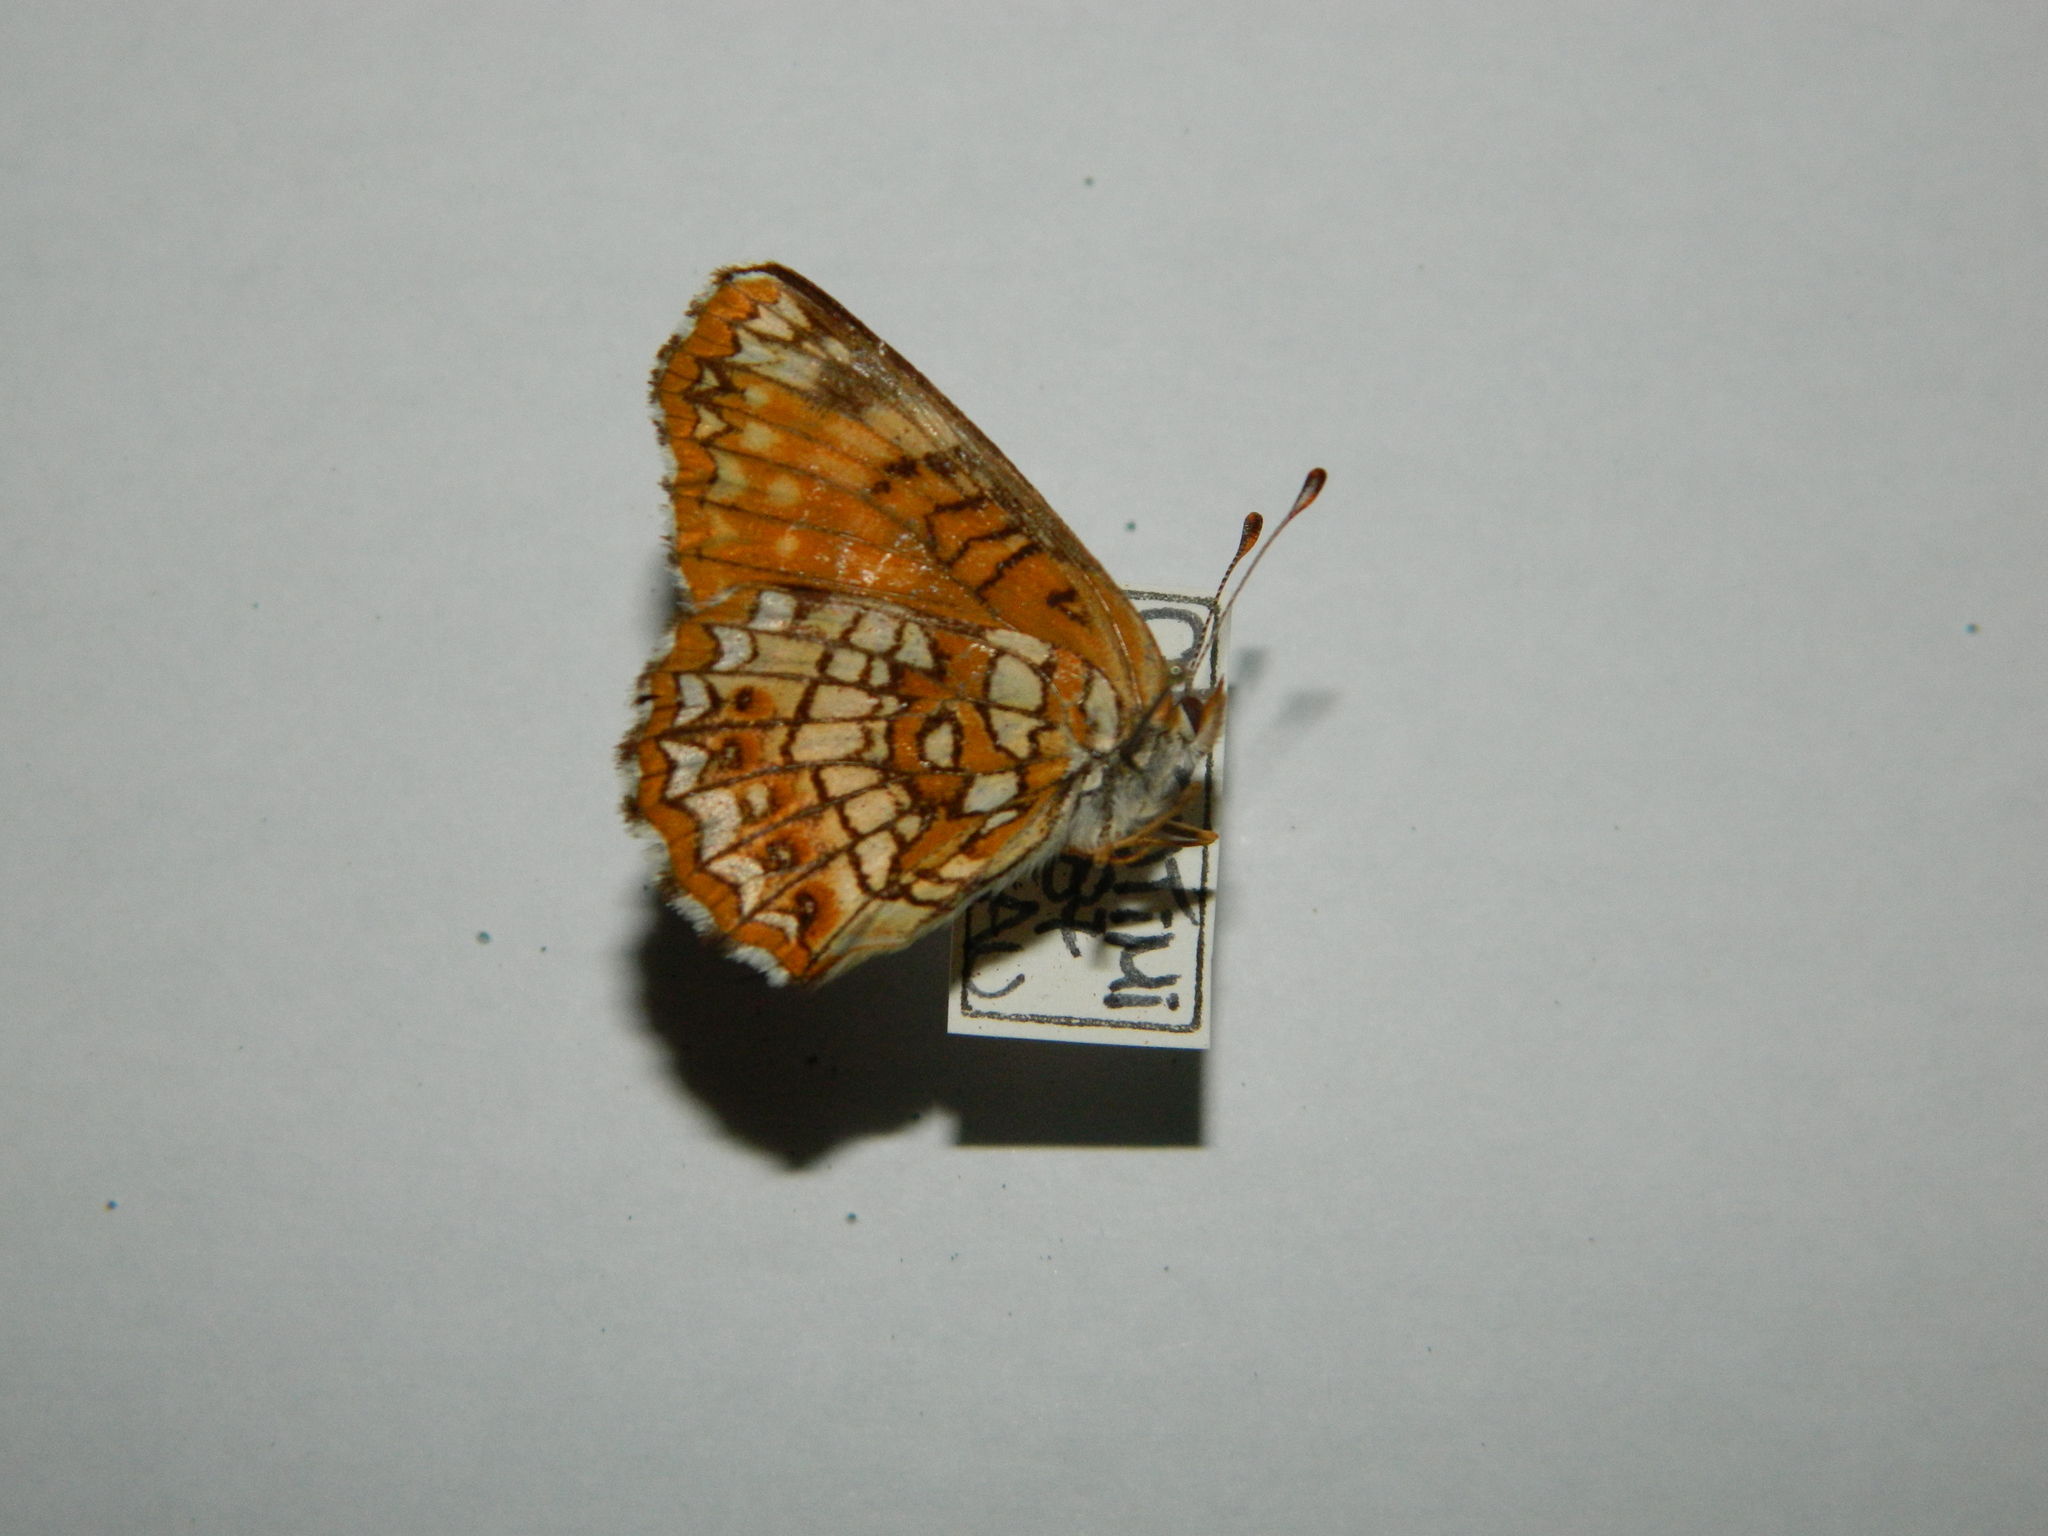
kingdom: Animalia
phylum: Arthropoda
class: Insecta
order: Lepidoptera
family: Nymphalidae
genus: Chlosyne
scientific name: Chlosyne harrisii
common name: Harris's checkerspot
